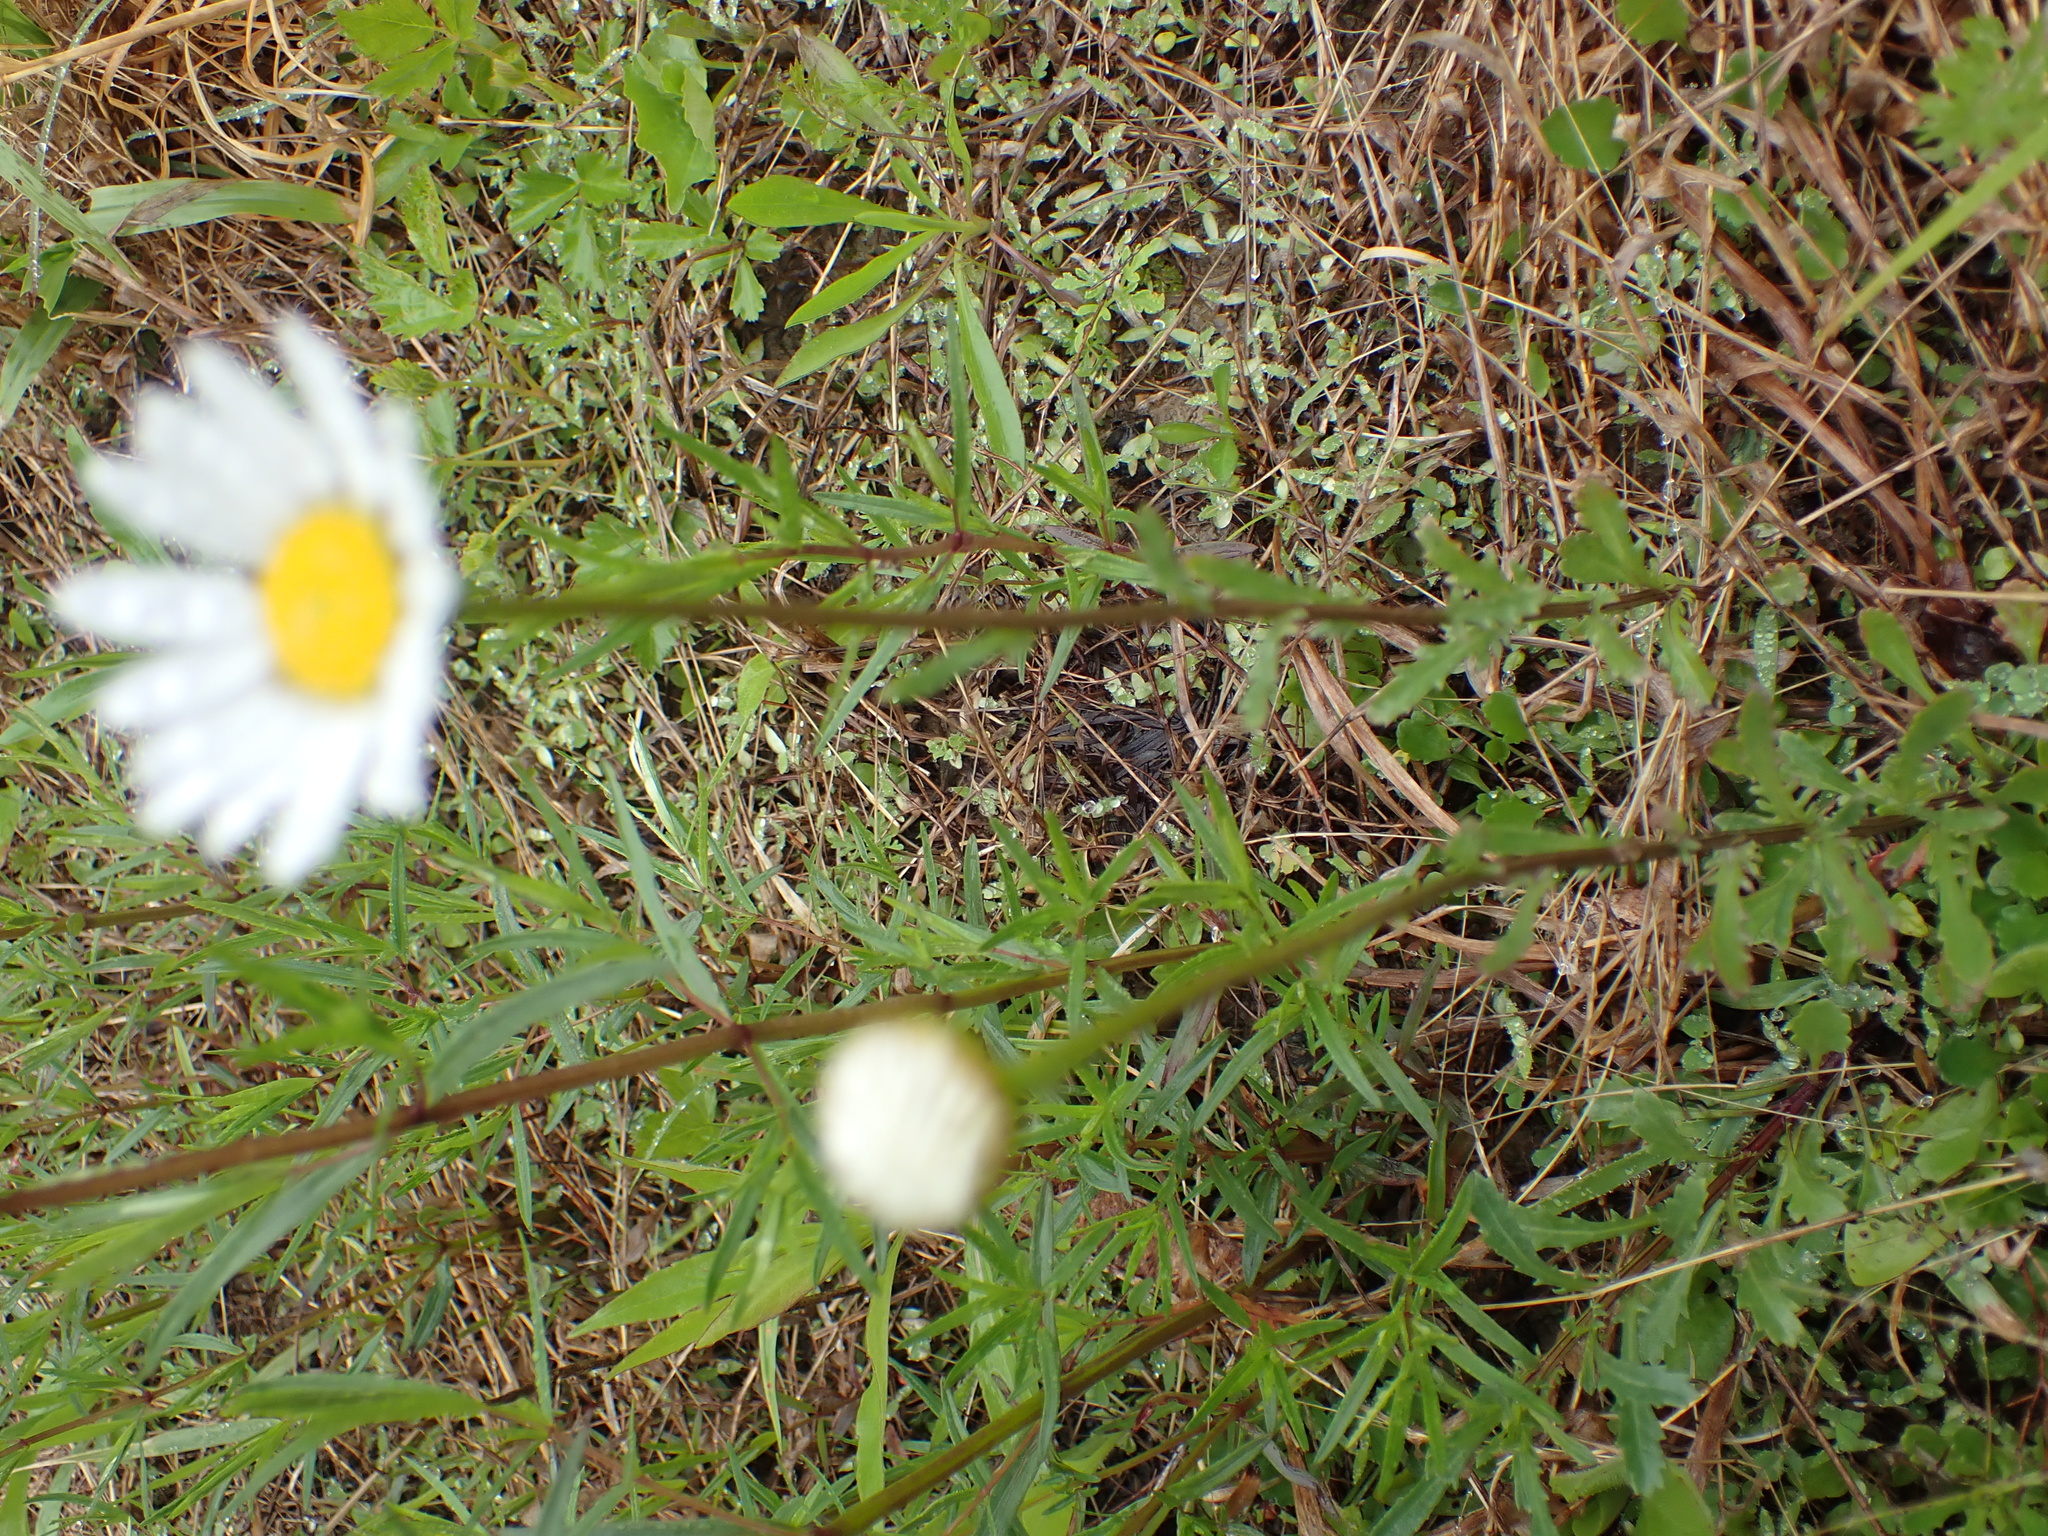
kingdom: Plantae
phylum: Tracheophyta
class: Magnoliopsida
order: Asterales
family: Asteraceae
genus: Leucanthemum
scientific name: Leucanthemum vulgare
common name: Oxeye daisy
